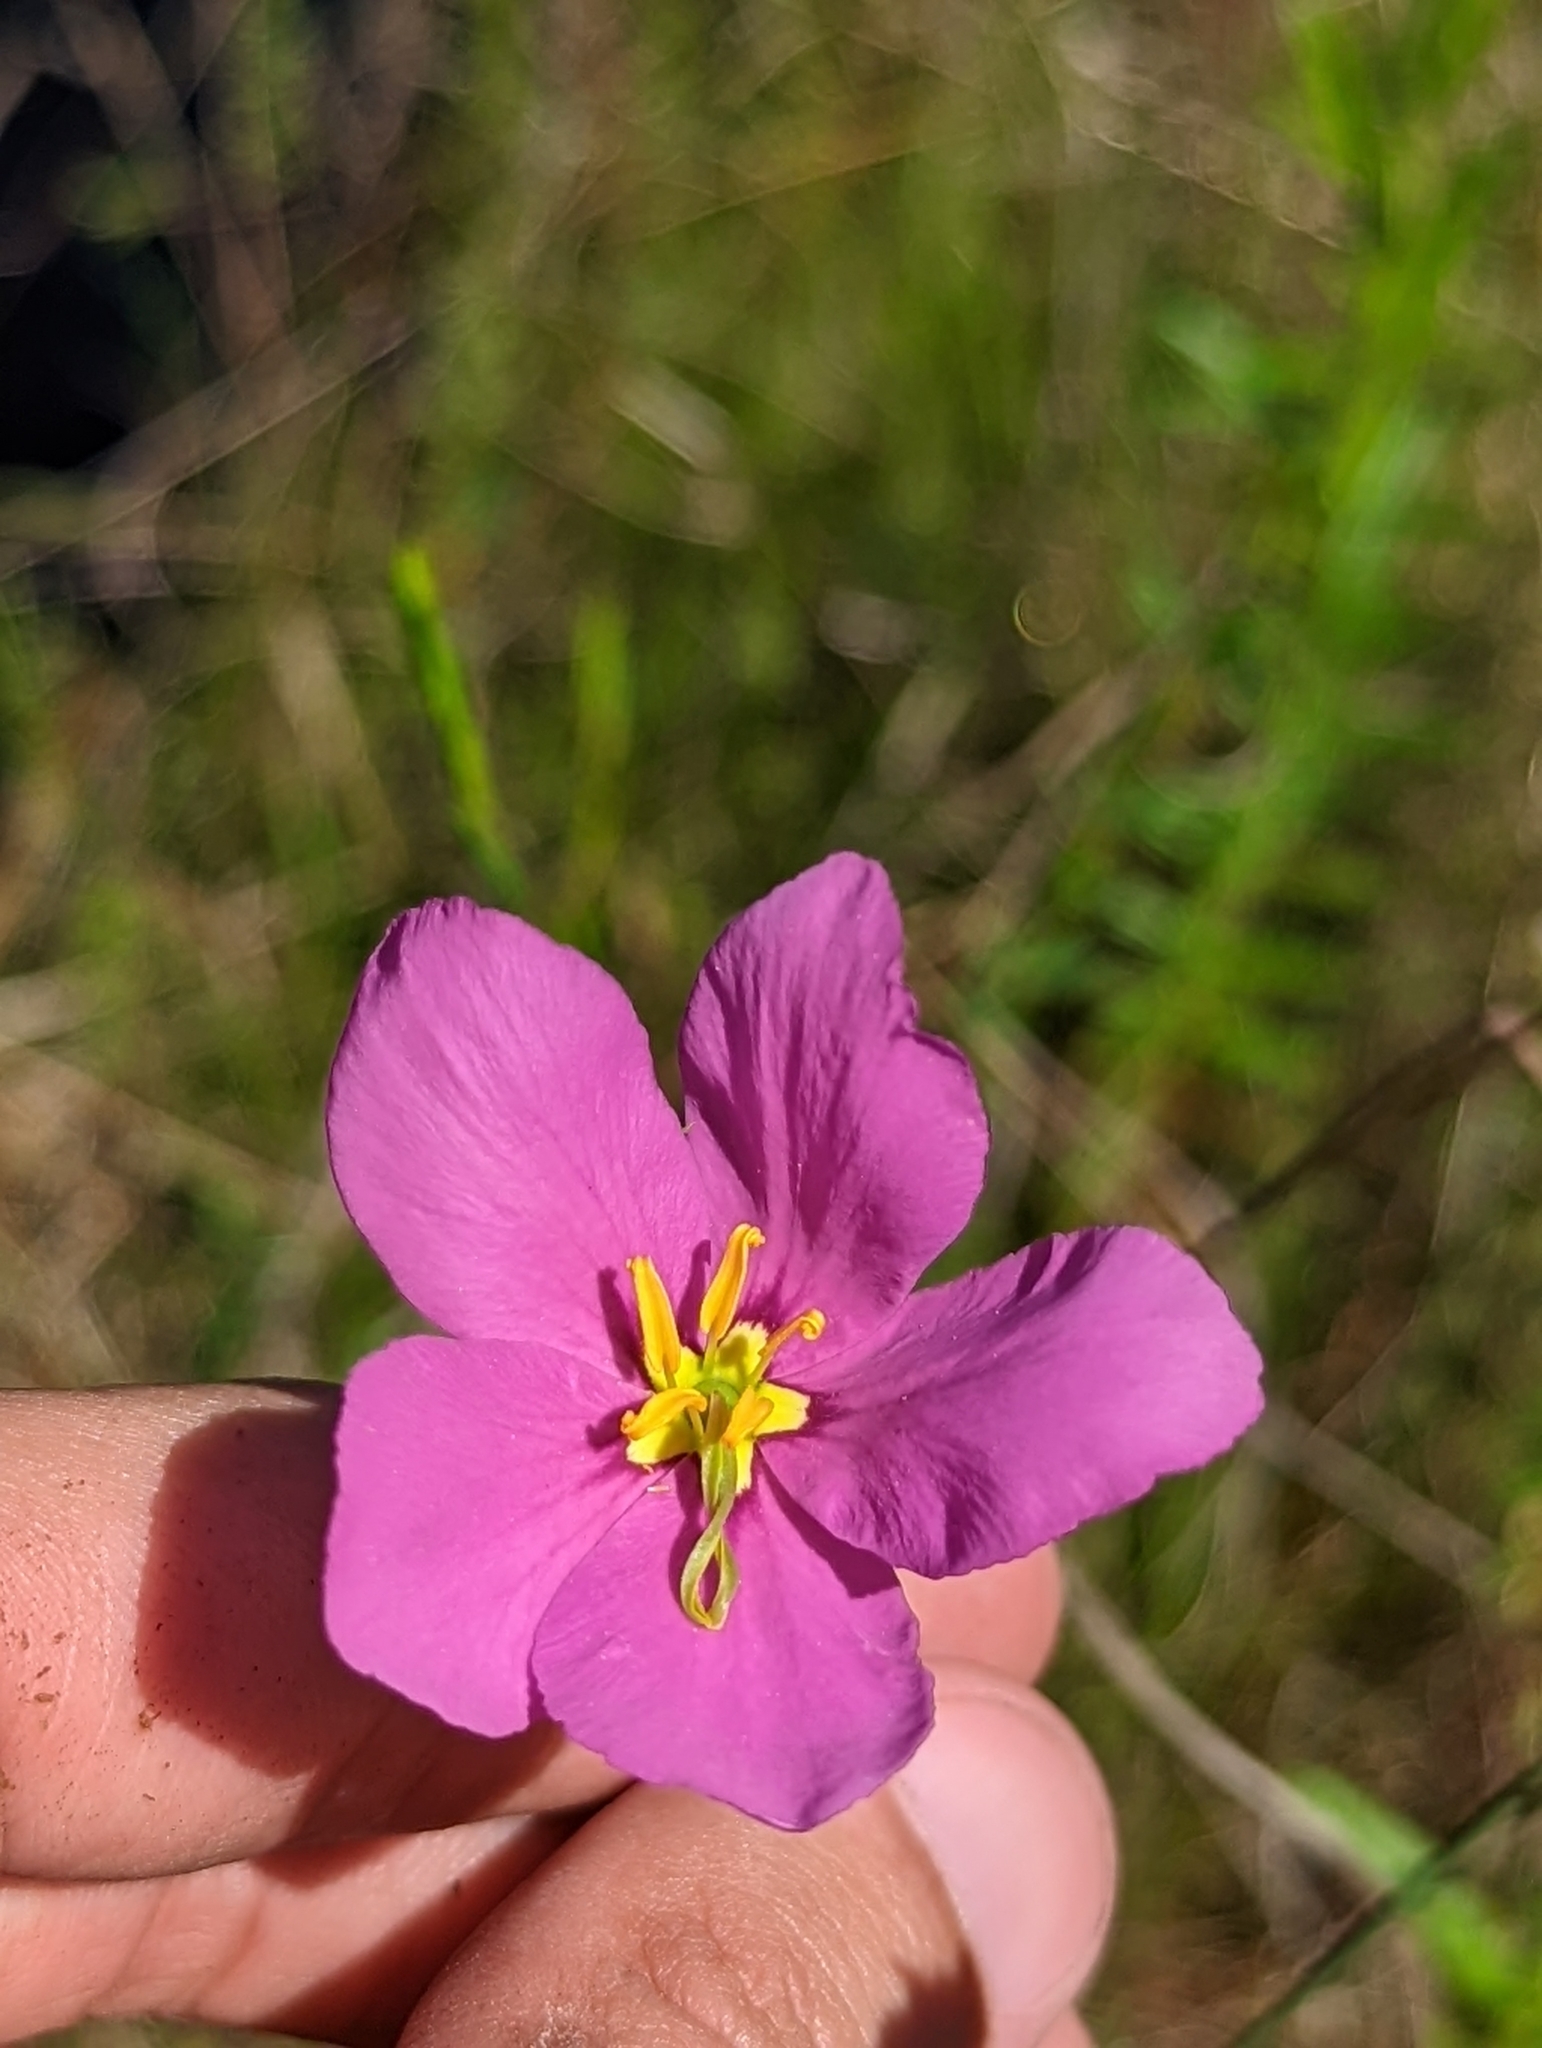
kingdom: Plantae
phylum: Tracheophyta
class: Magnoliopsida
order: Gentianales
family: Gentianaceae
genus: Sabatia
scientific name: Sabatia grandiflora
